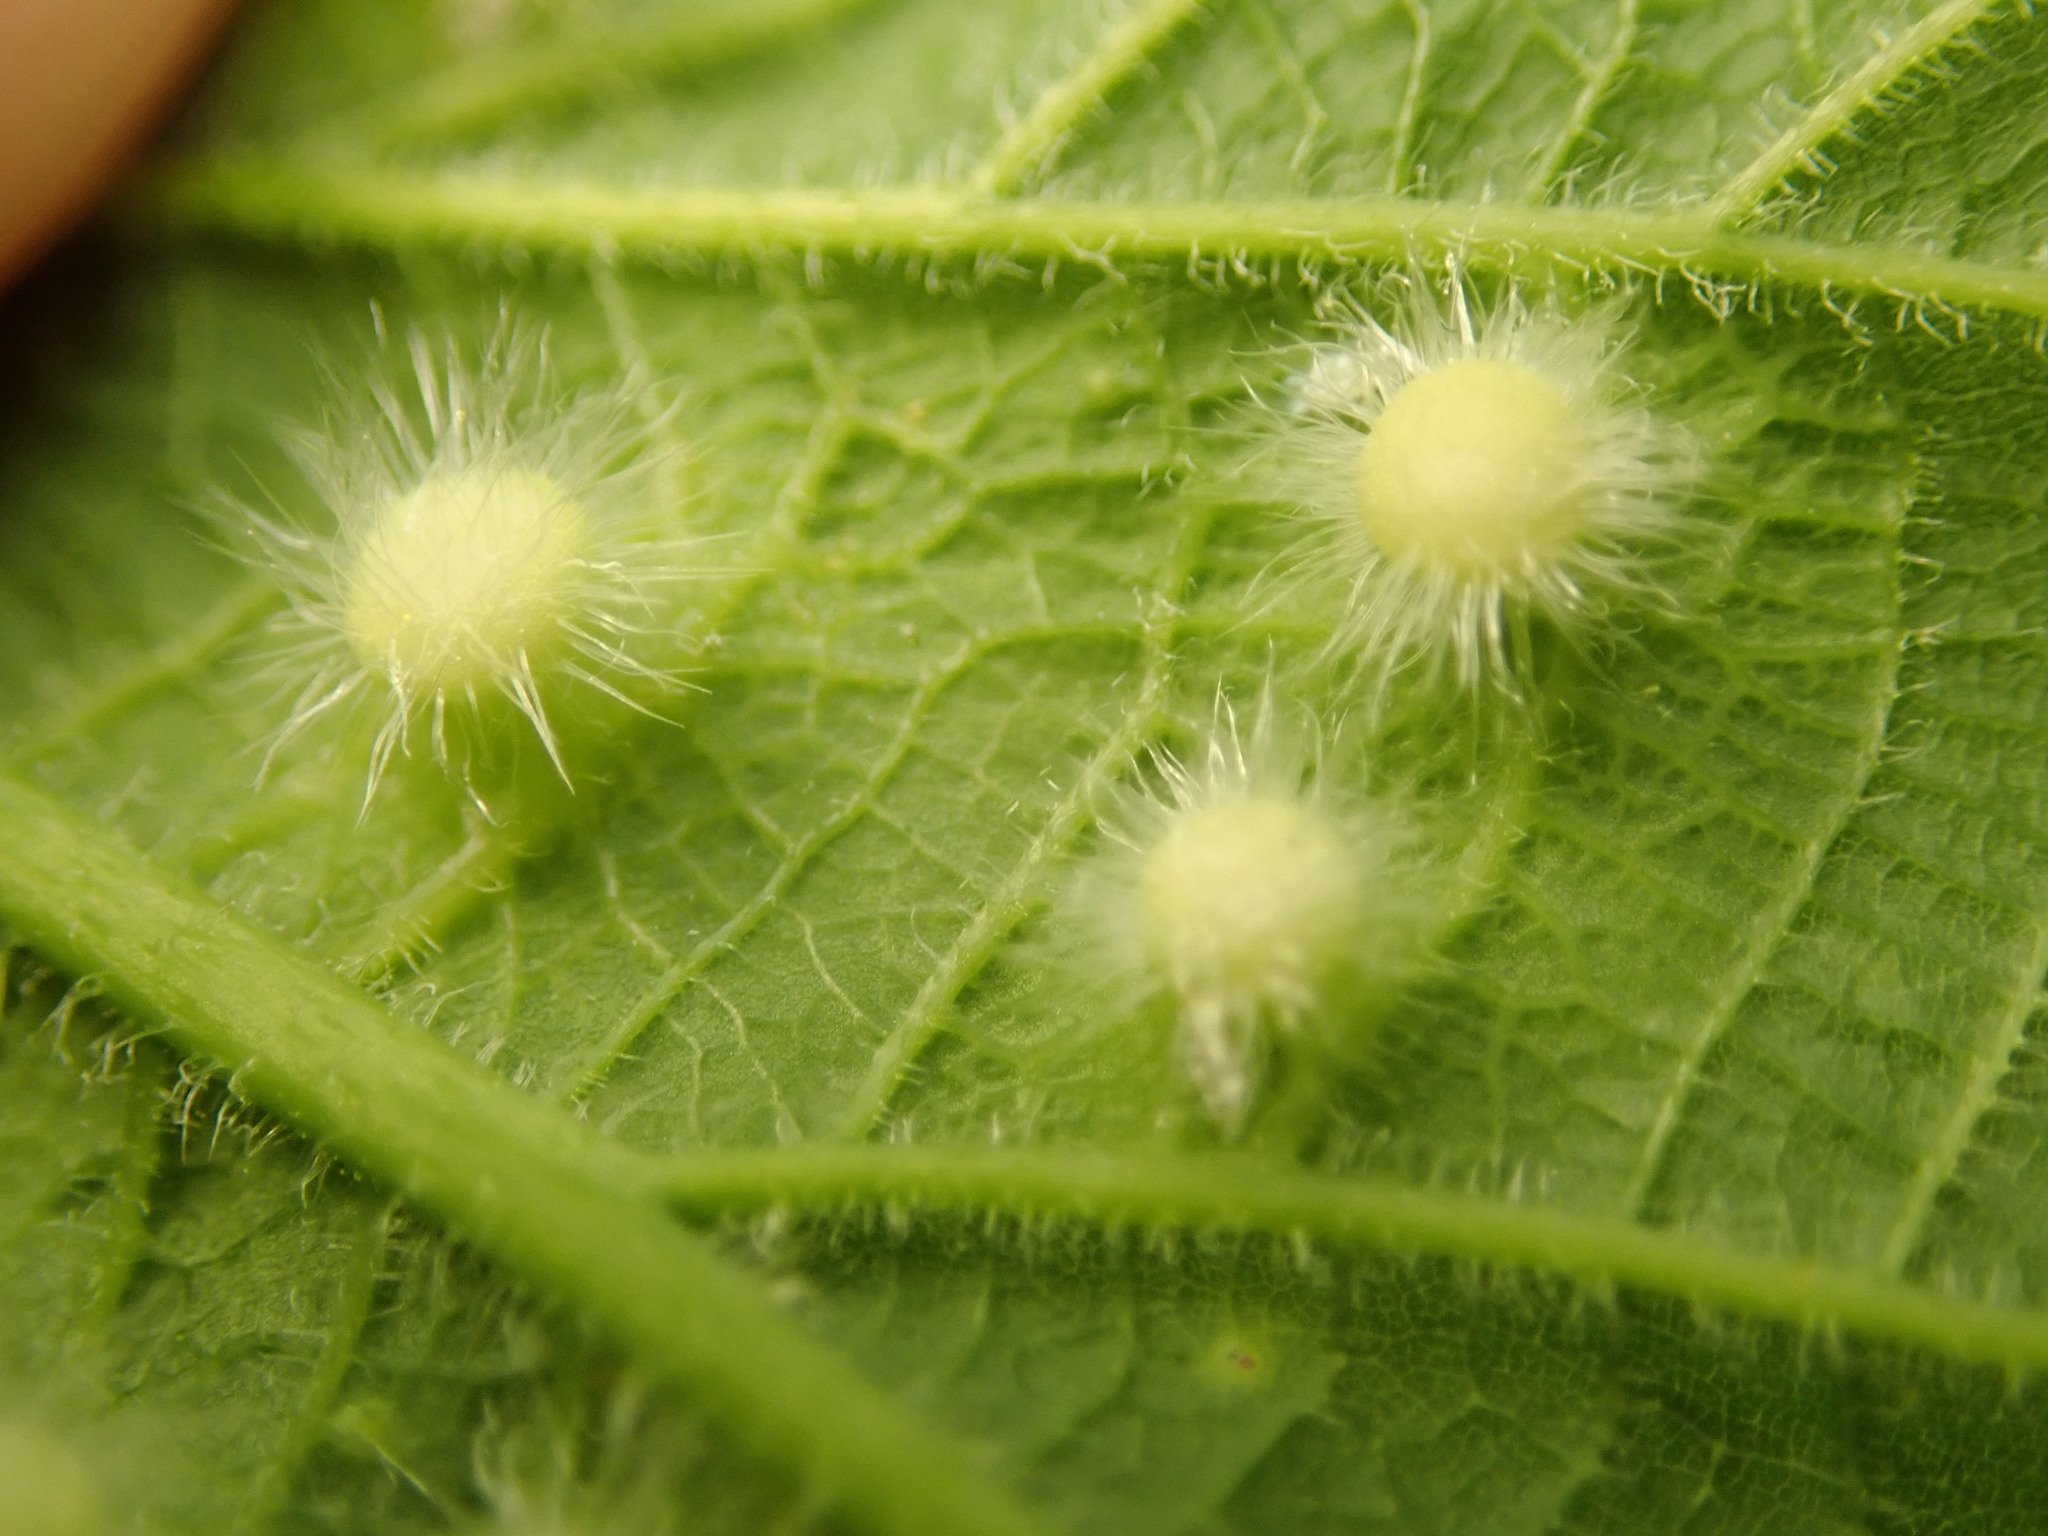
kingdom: Animalia
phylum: Arthropoda
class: Insecta
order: Hemiptera
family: Aphalaridae
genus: Pachypsylla
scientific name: Pachypsylla celtidismamma
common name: Hackberry nipplegall psyllid
